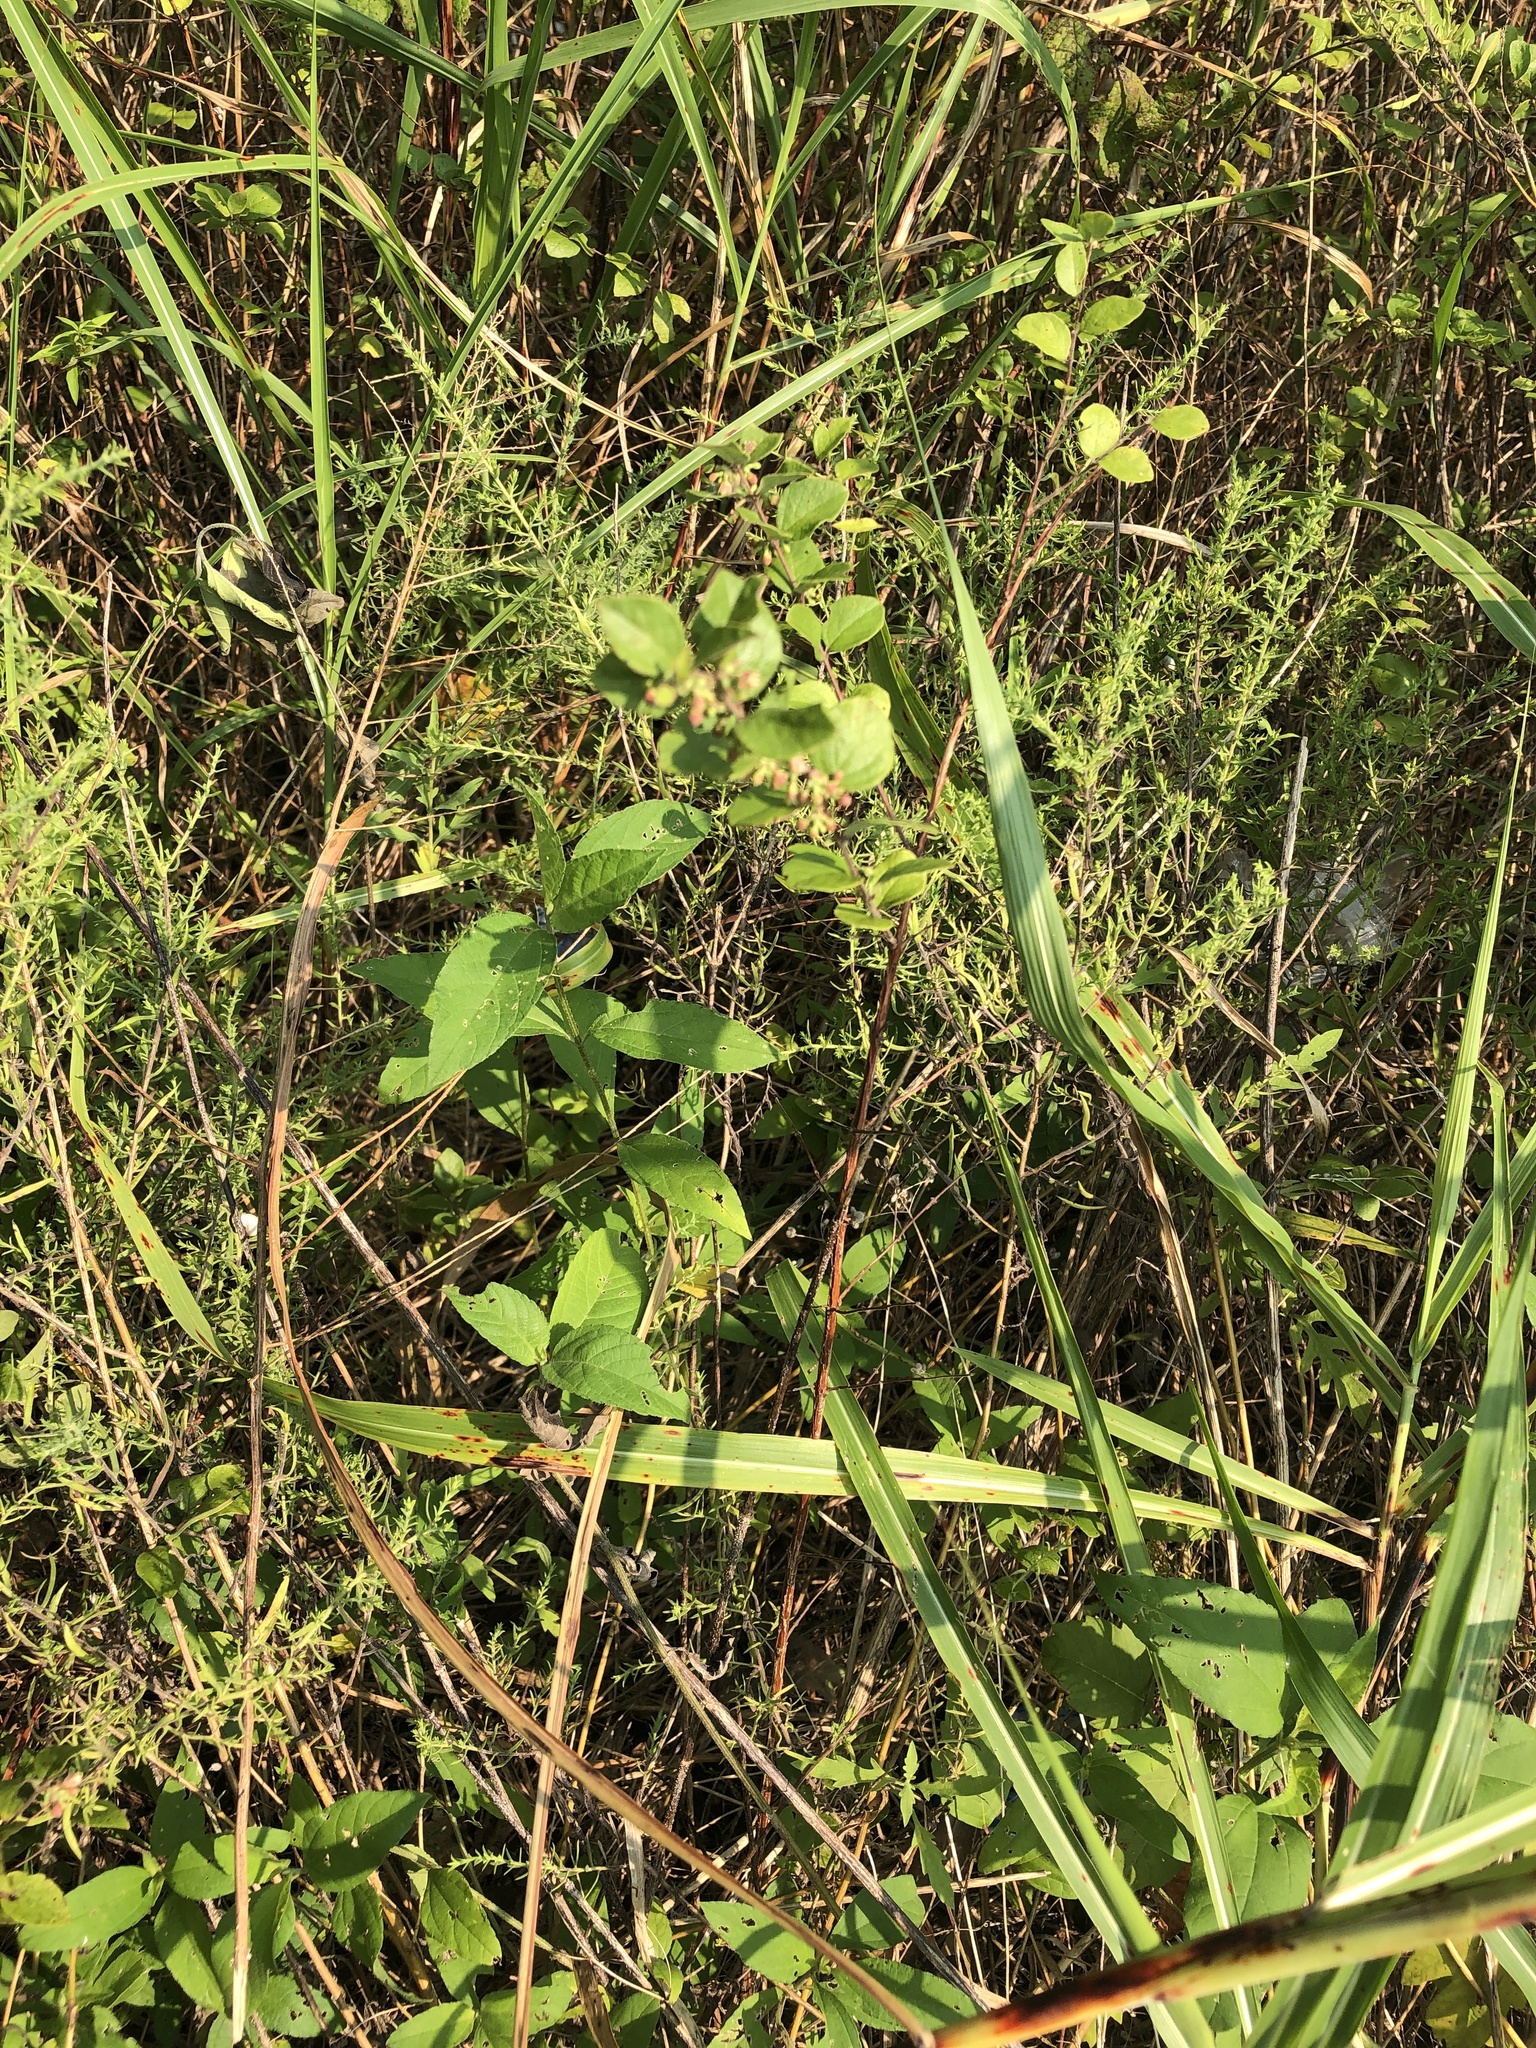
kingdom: Plantae
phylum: Tracheophyta
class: Magnoliopsida
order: Dipsacales
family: Caprifoliaceae
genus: Symphoricarpos
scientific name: Symphoricarpos orbiculatus
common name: Coralberry
